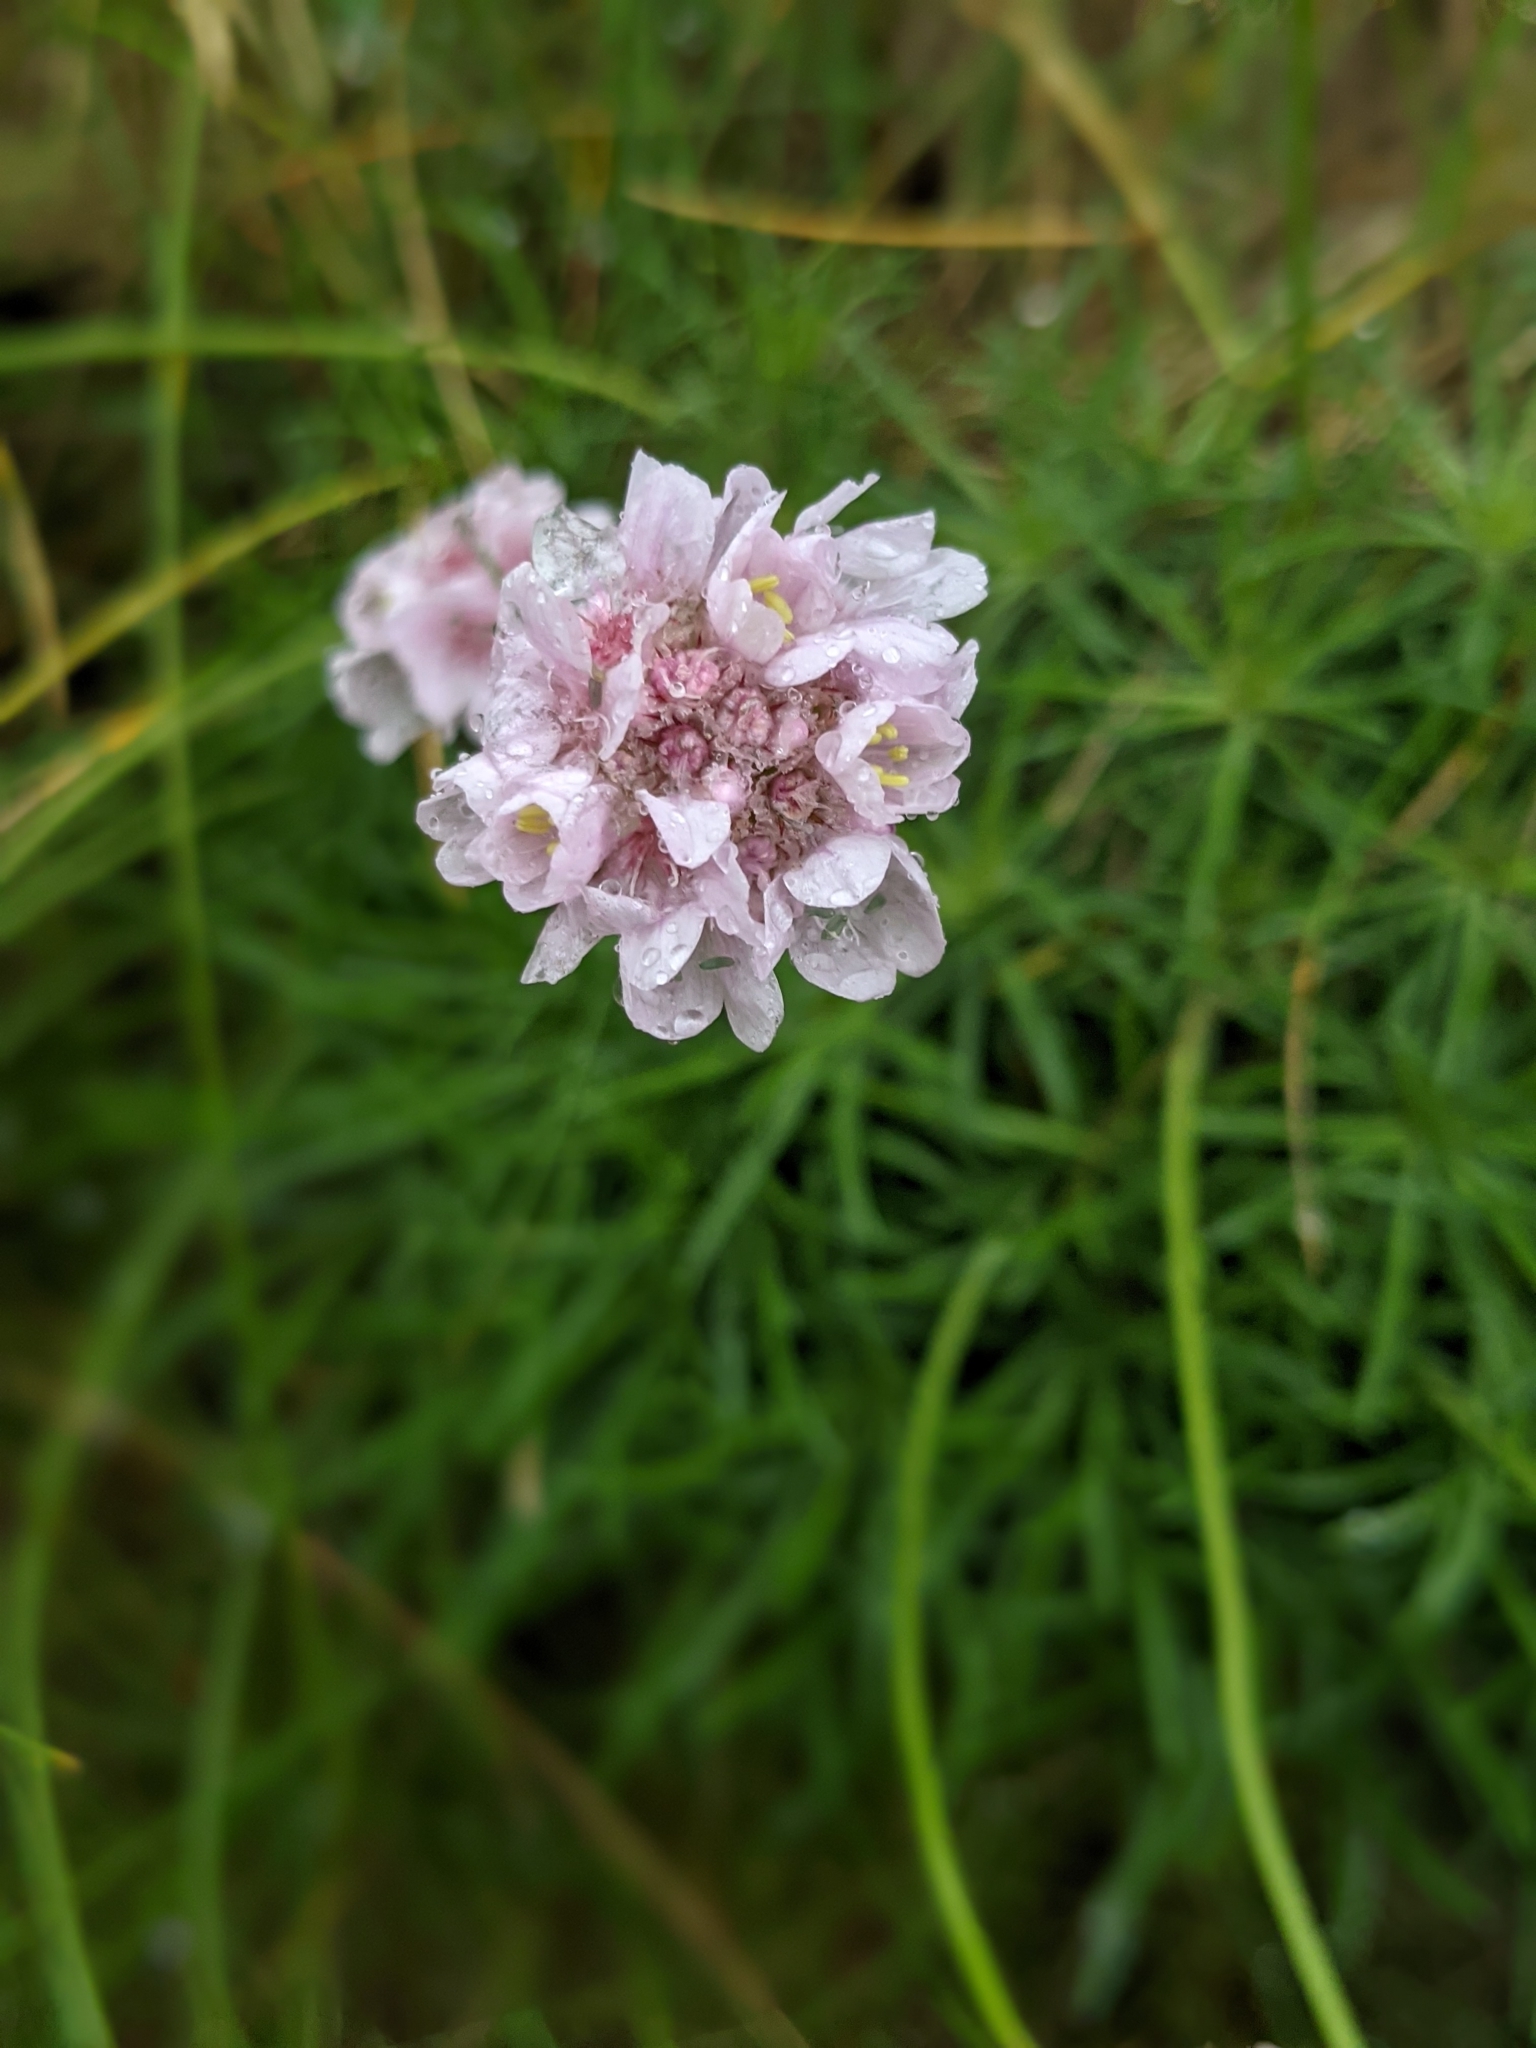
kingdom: Plantae
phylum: Tracheophyta
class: Magnoliopsida
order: Caryophyllales
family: Plumbaginaceae
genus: Armeria
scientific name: Armeria maritima
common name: Thrift
